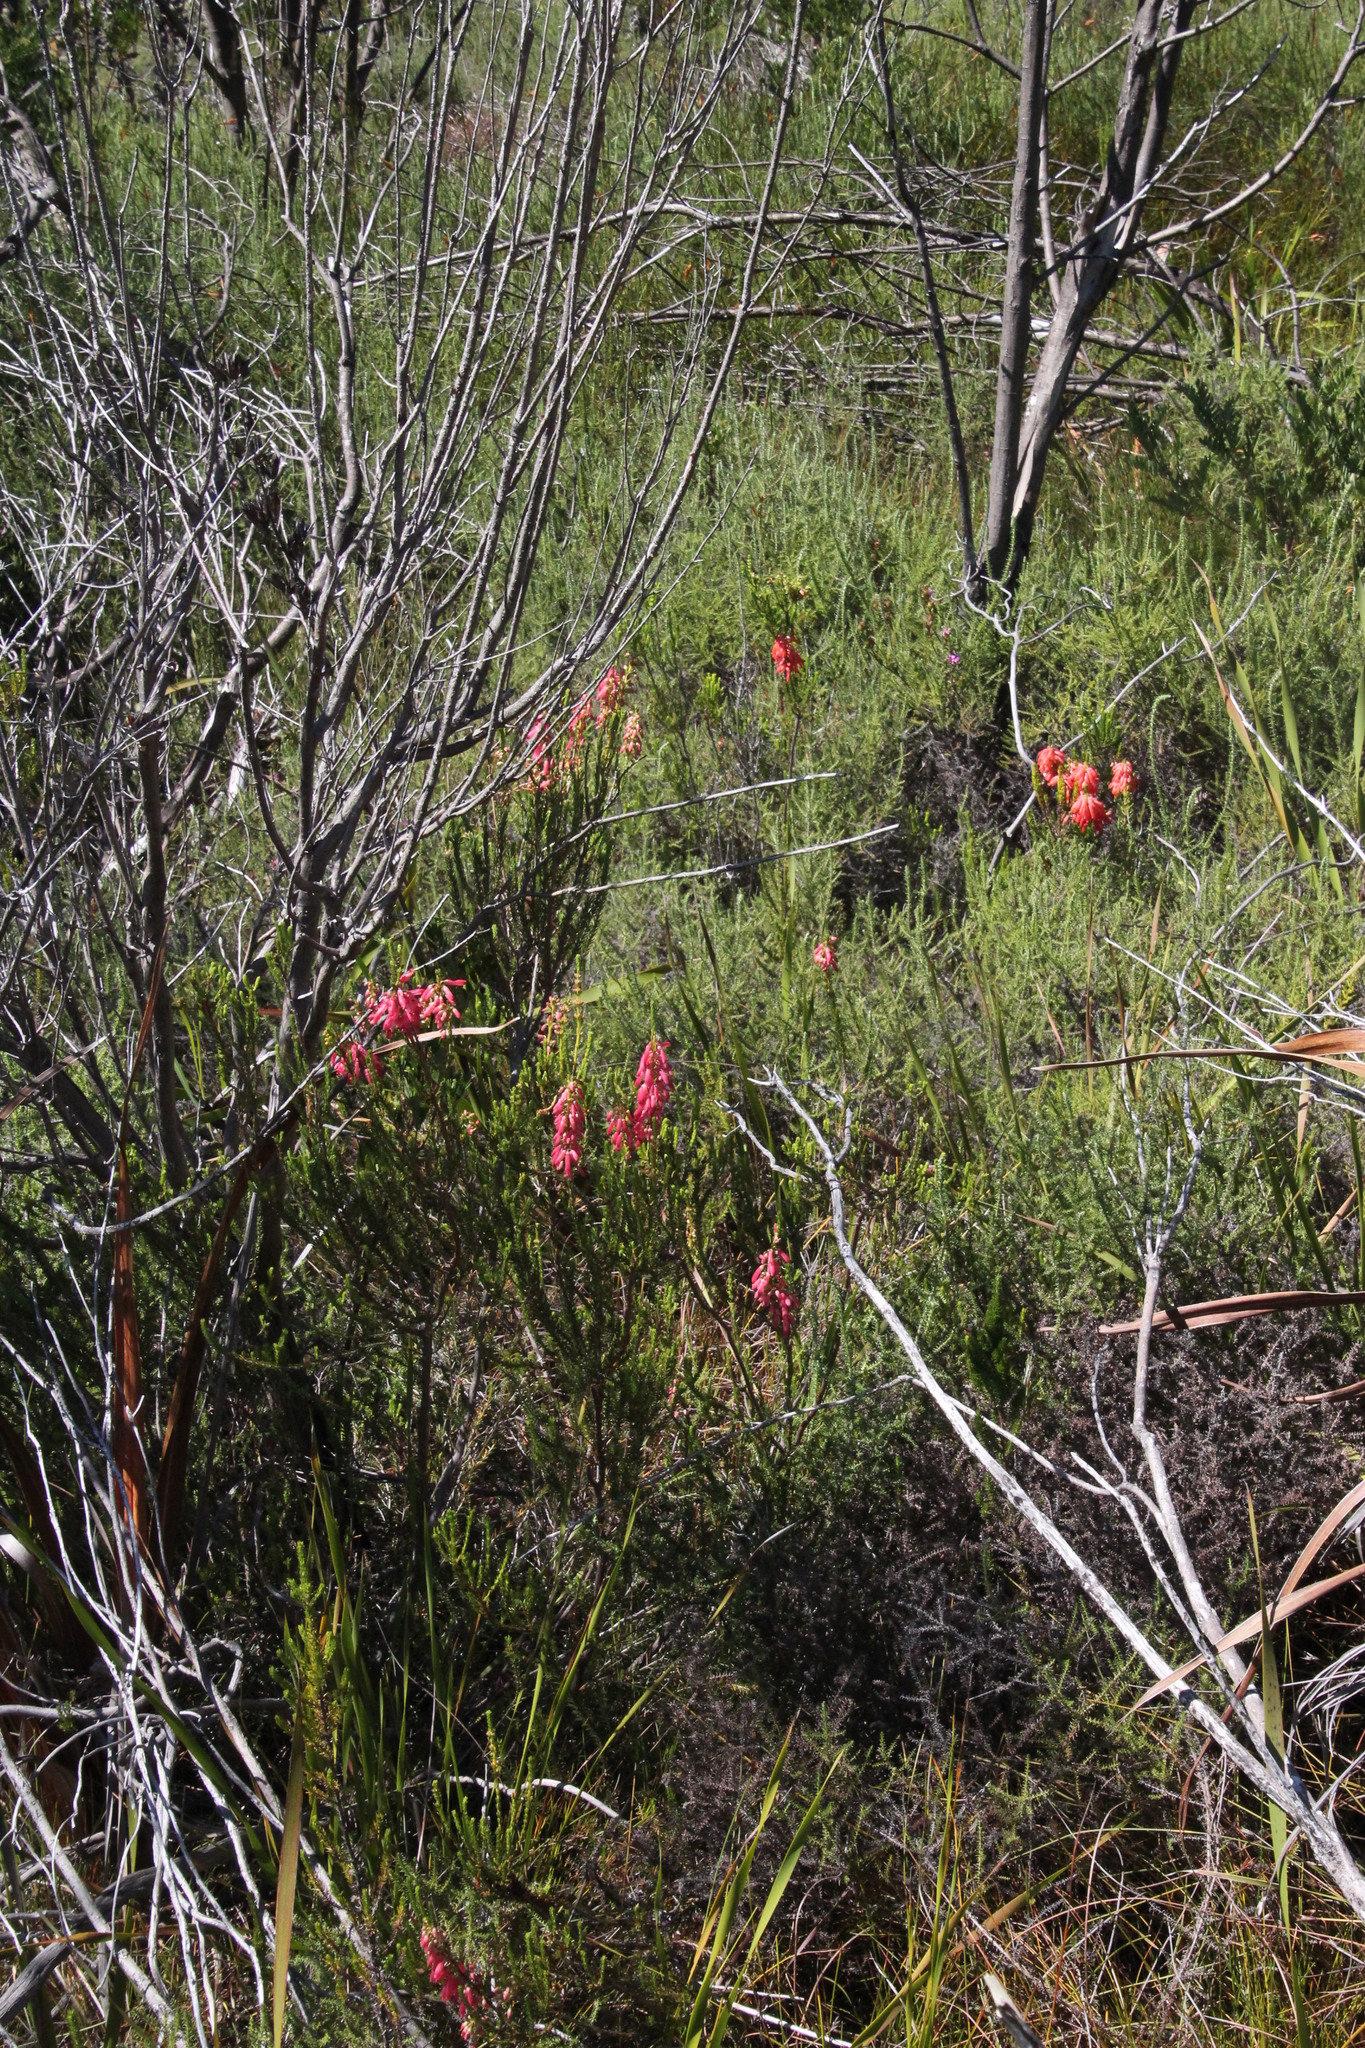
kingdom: Plantae
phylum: Tracheophyta
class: Magnoliopsida
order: Ericales
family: Ericaceae
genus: Erica
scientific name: Erica mammosa
